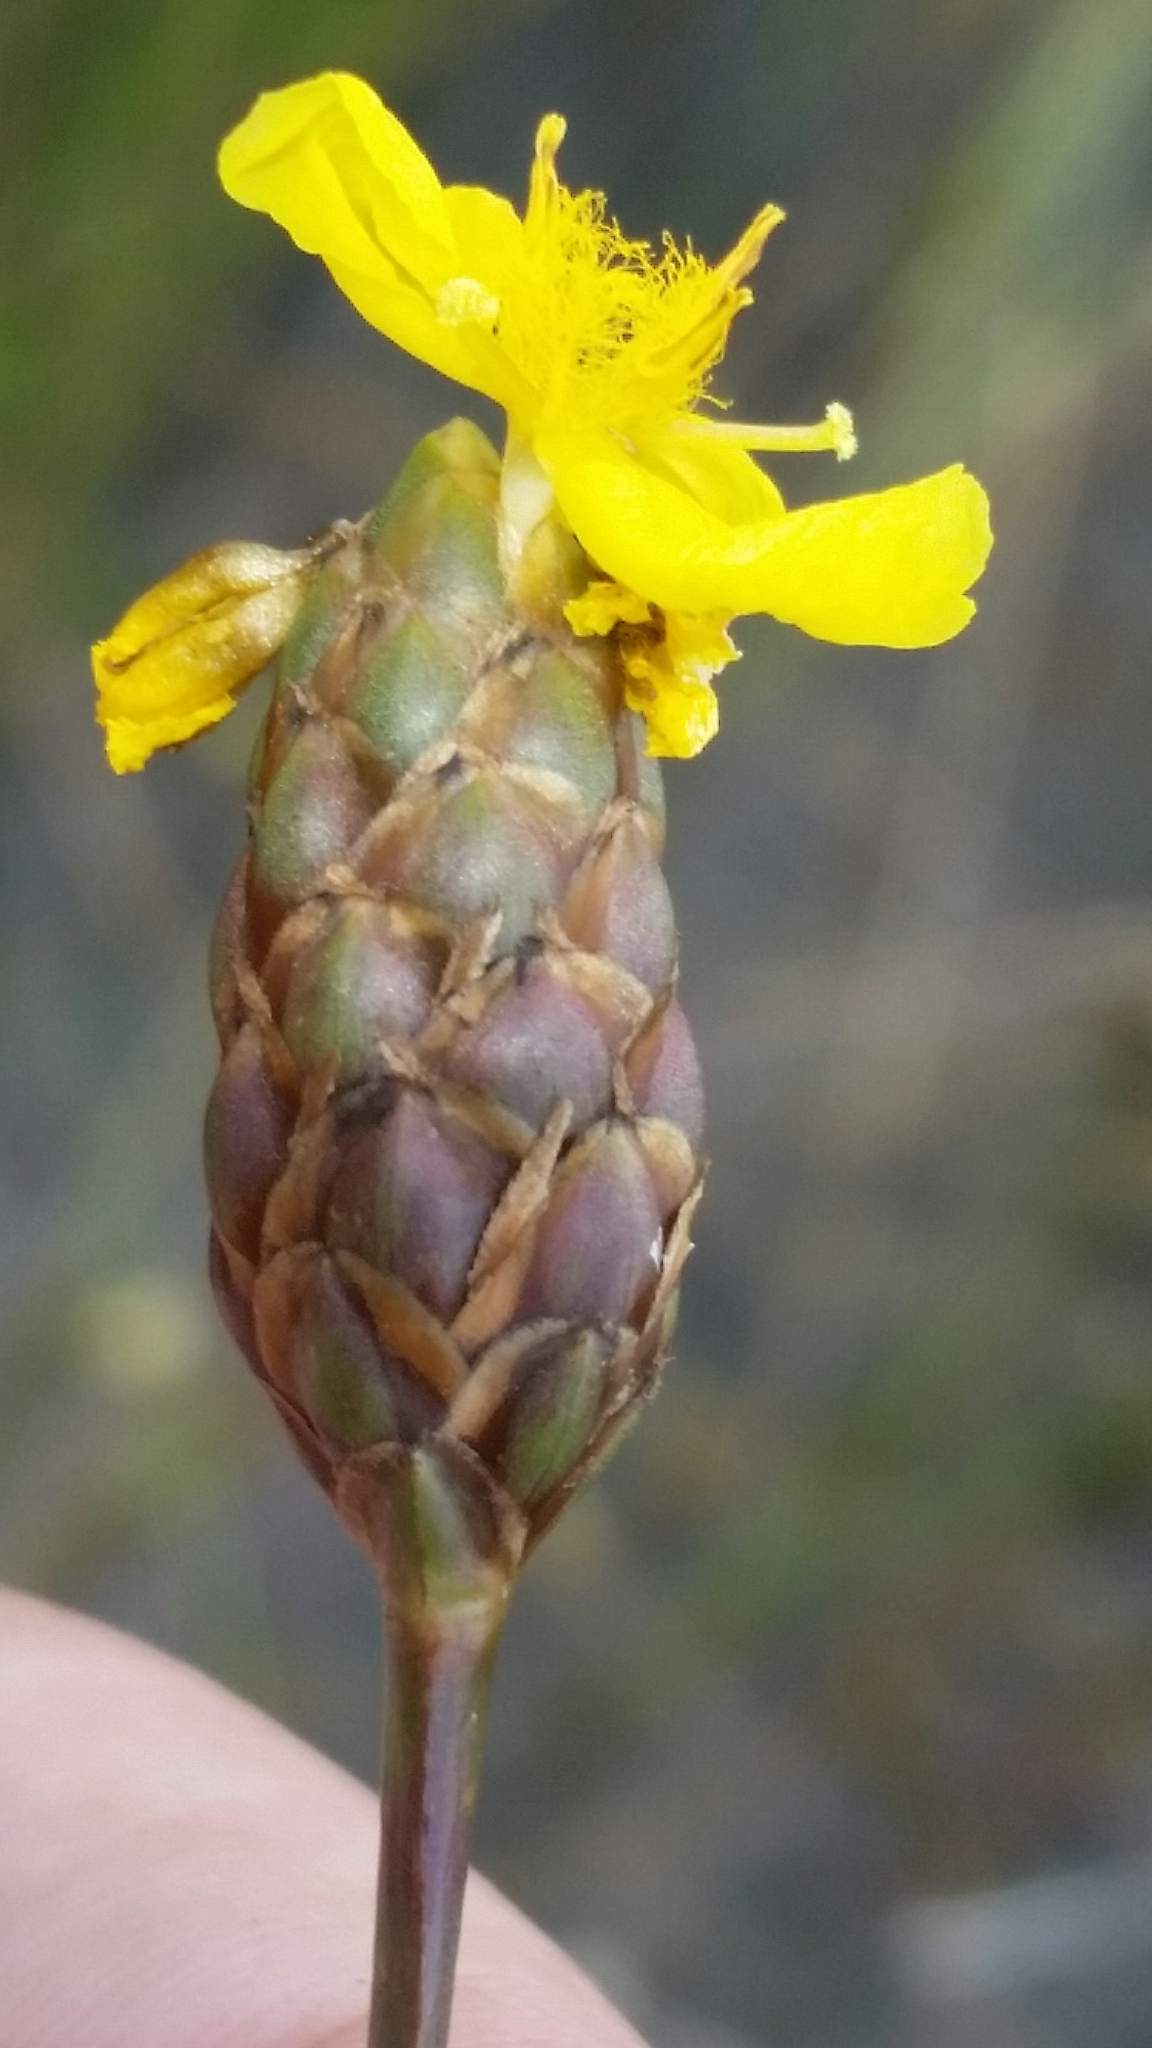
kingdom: Plantae
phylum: Tracheophyta
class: Liliopsida
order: Poales
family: Xyridaceae
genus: Xyris
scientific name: Xyris smalliana
